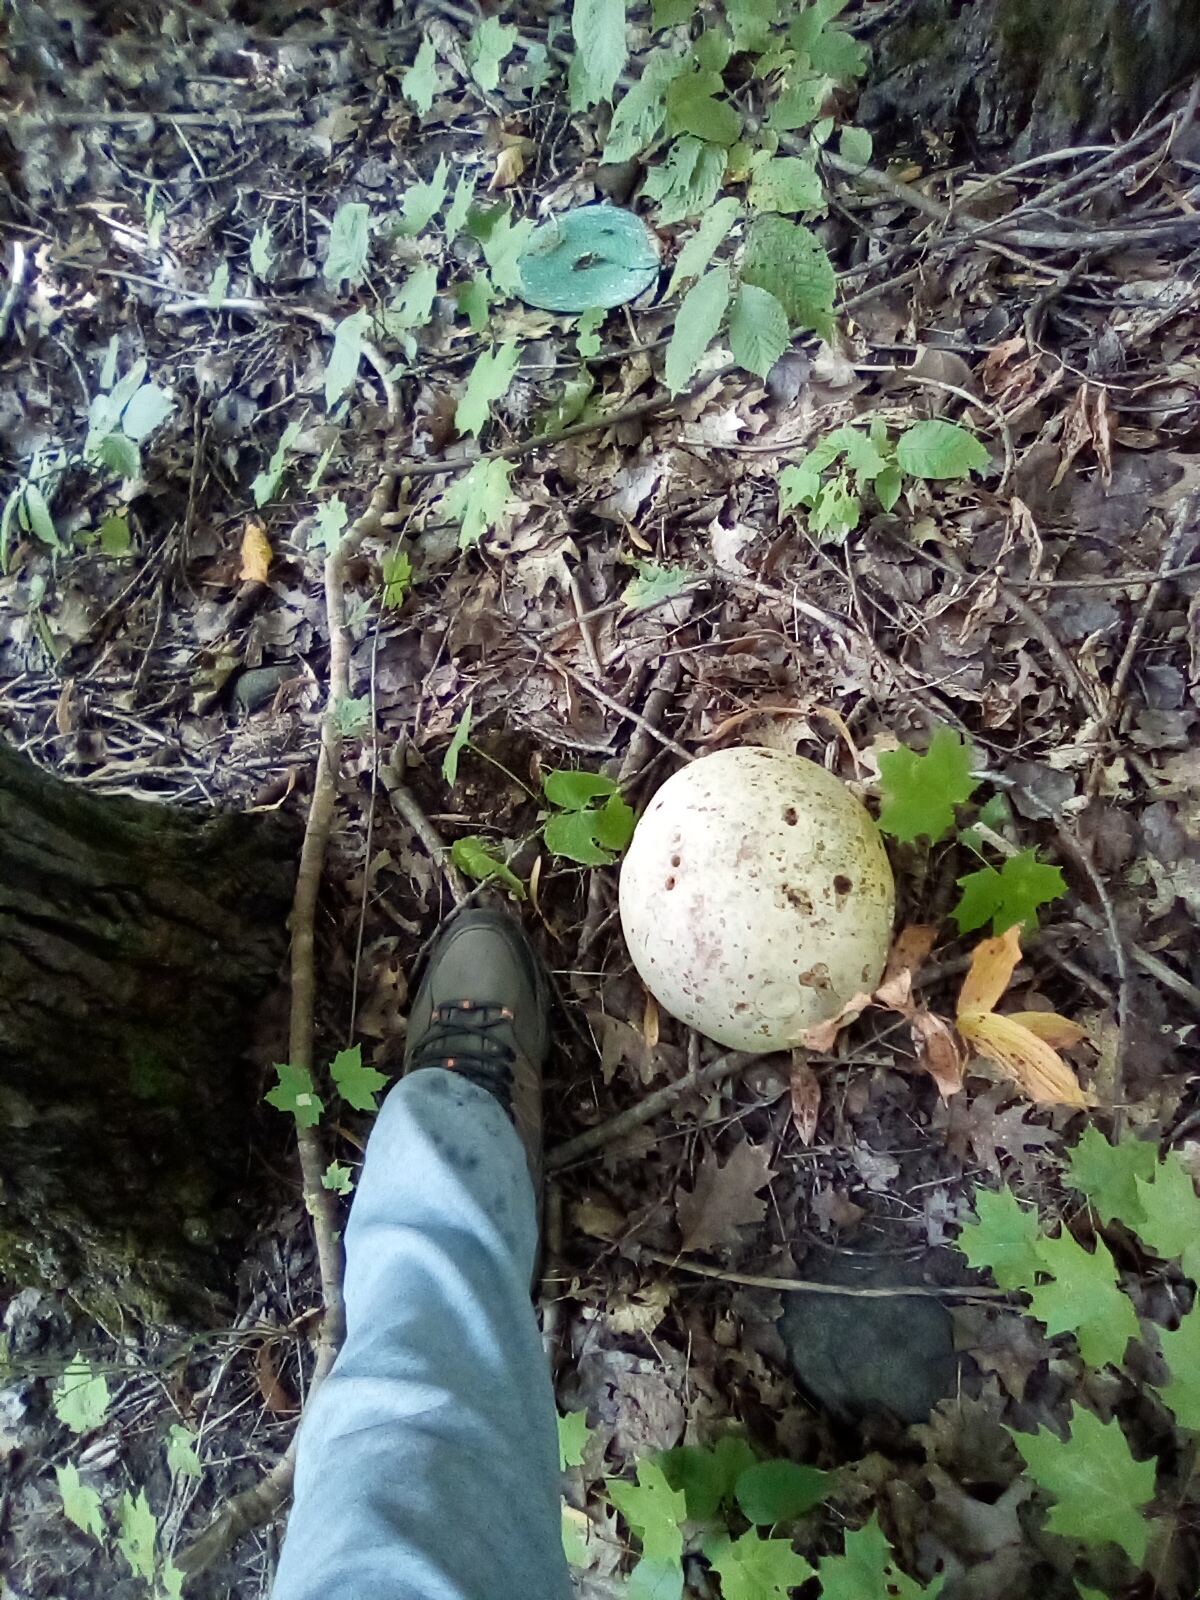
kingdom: Fungi
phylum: Basidiomycota
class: Agaricomycetes
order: Agaricales
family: Lycoperdaceae
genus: Calvatia
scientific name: Calvatia gigantea
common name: Giant puffball
